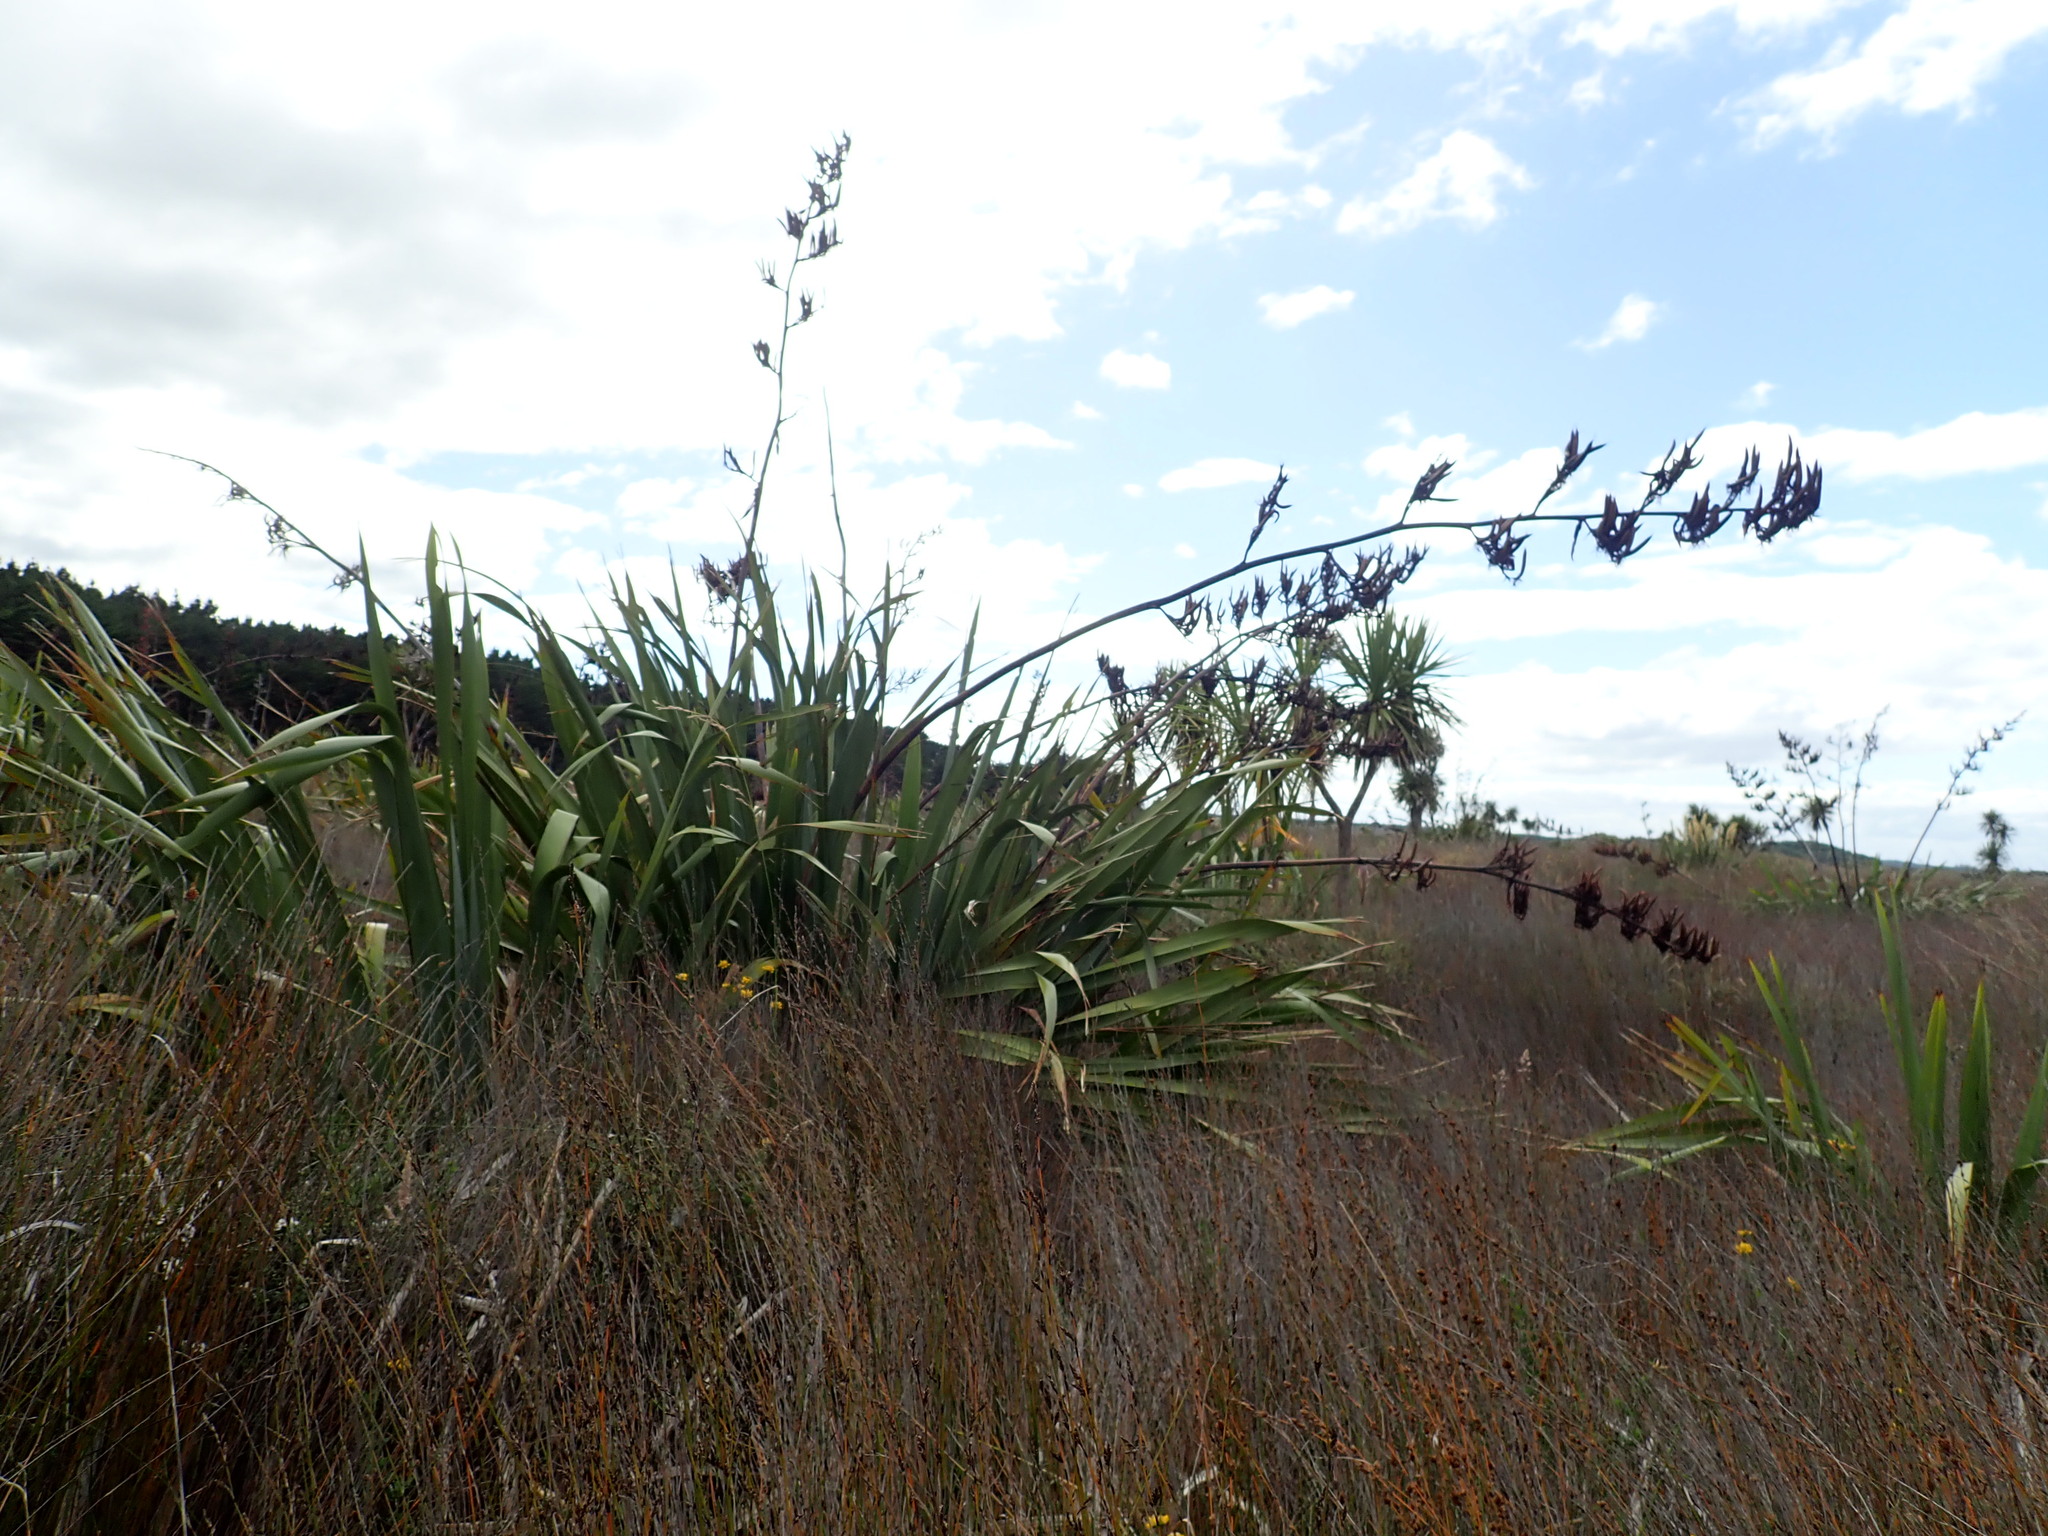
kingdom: Plantae
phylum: Tracheophyta
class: Liliopsida
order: Asparagales
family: Asphodelaceae
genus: Phormium
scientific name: Phormium tenax
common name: New zealand flax
